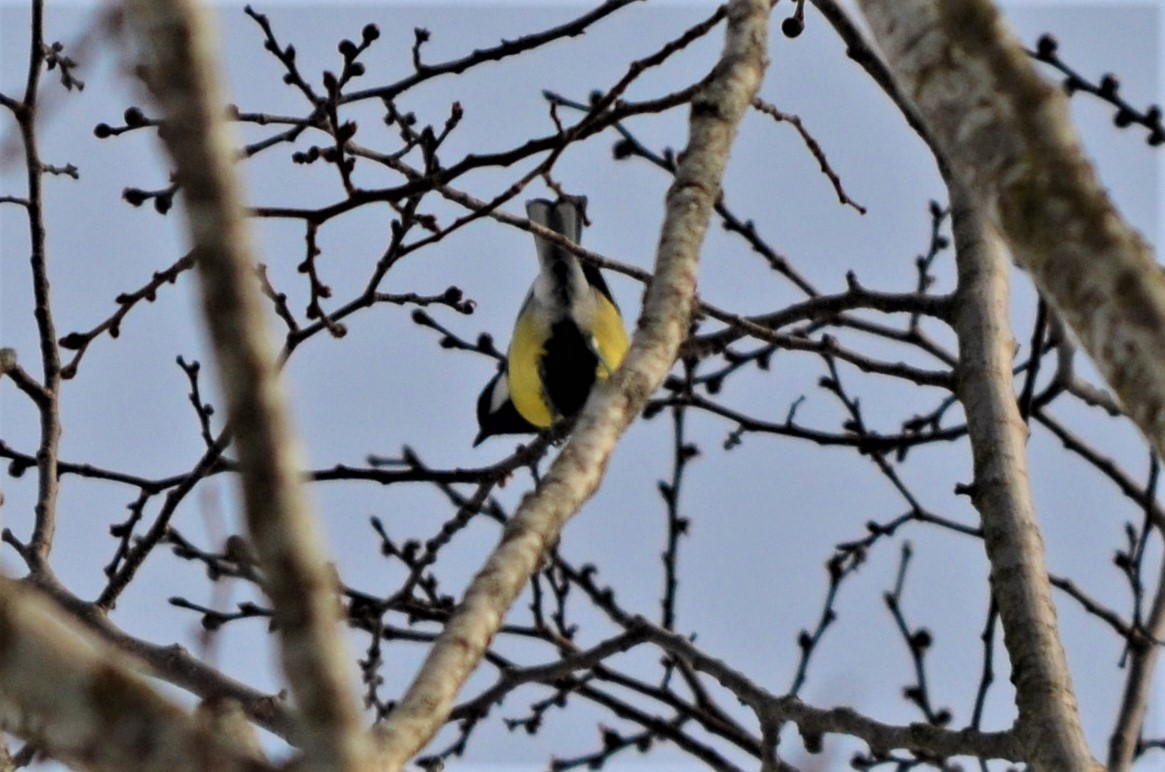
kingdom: Animalia
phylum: Chordata
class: Aves
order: Passeriformes
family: Paridae
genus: Parus
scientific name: Parus major
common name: Great tit
